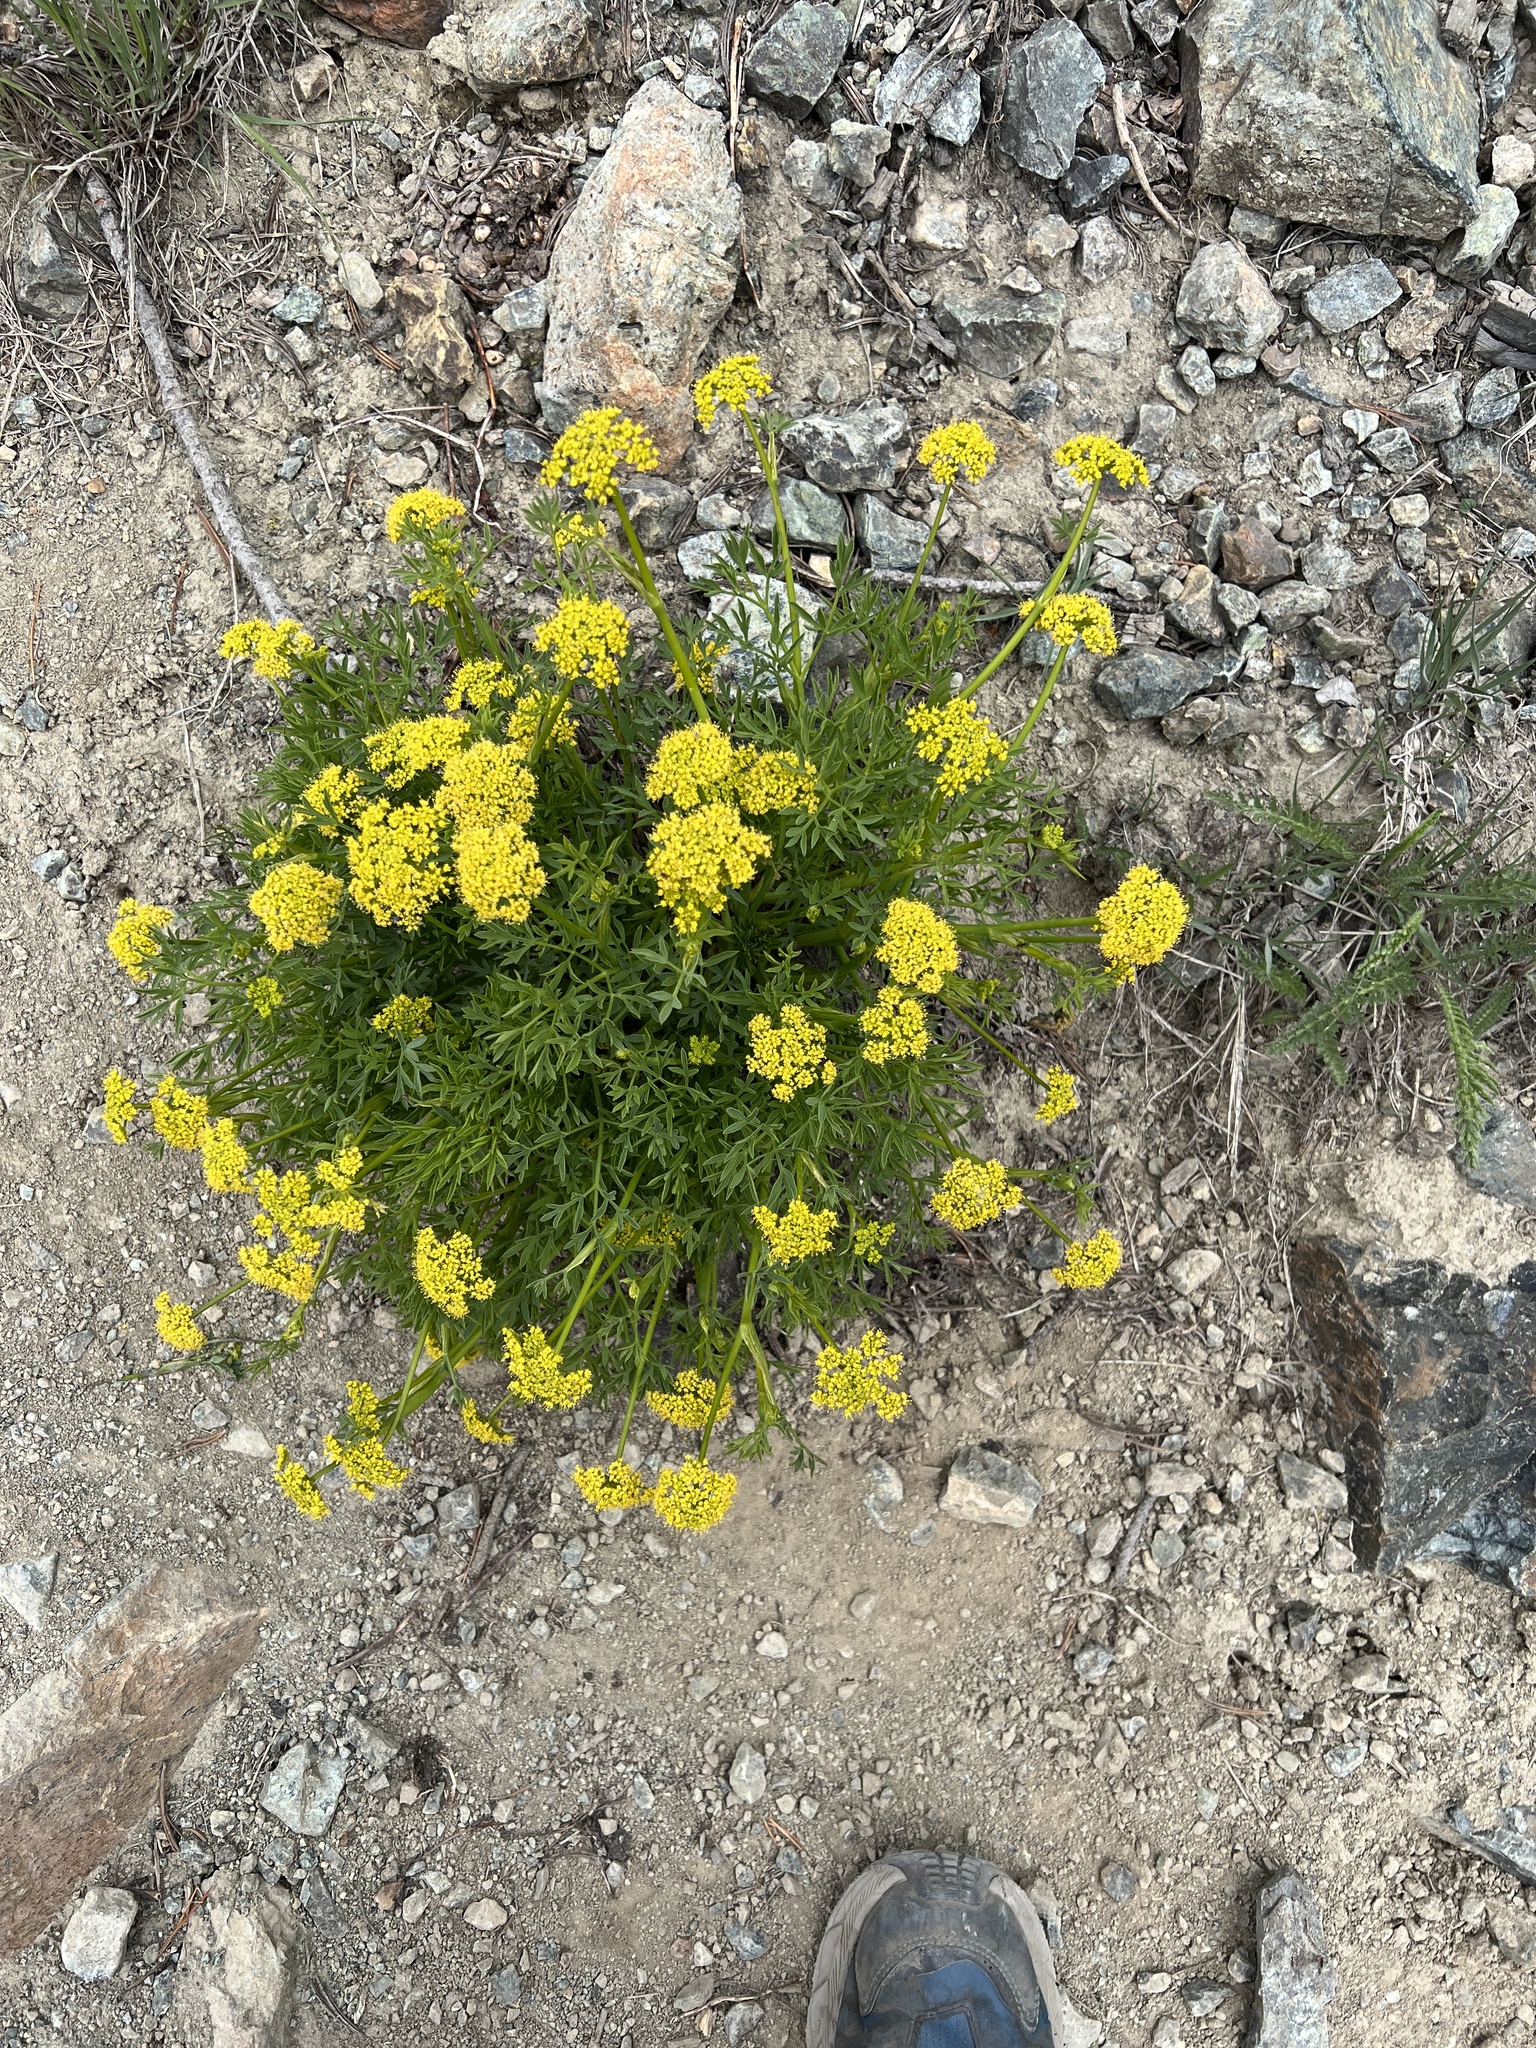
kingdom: Plantae
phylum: Tracheophyta
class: Magnoliopsida
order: Apiales
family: Apiaceae
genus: Lomatium
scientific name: Lomatium brandegeei
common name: Brandegee's desert-parsley
